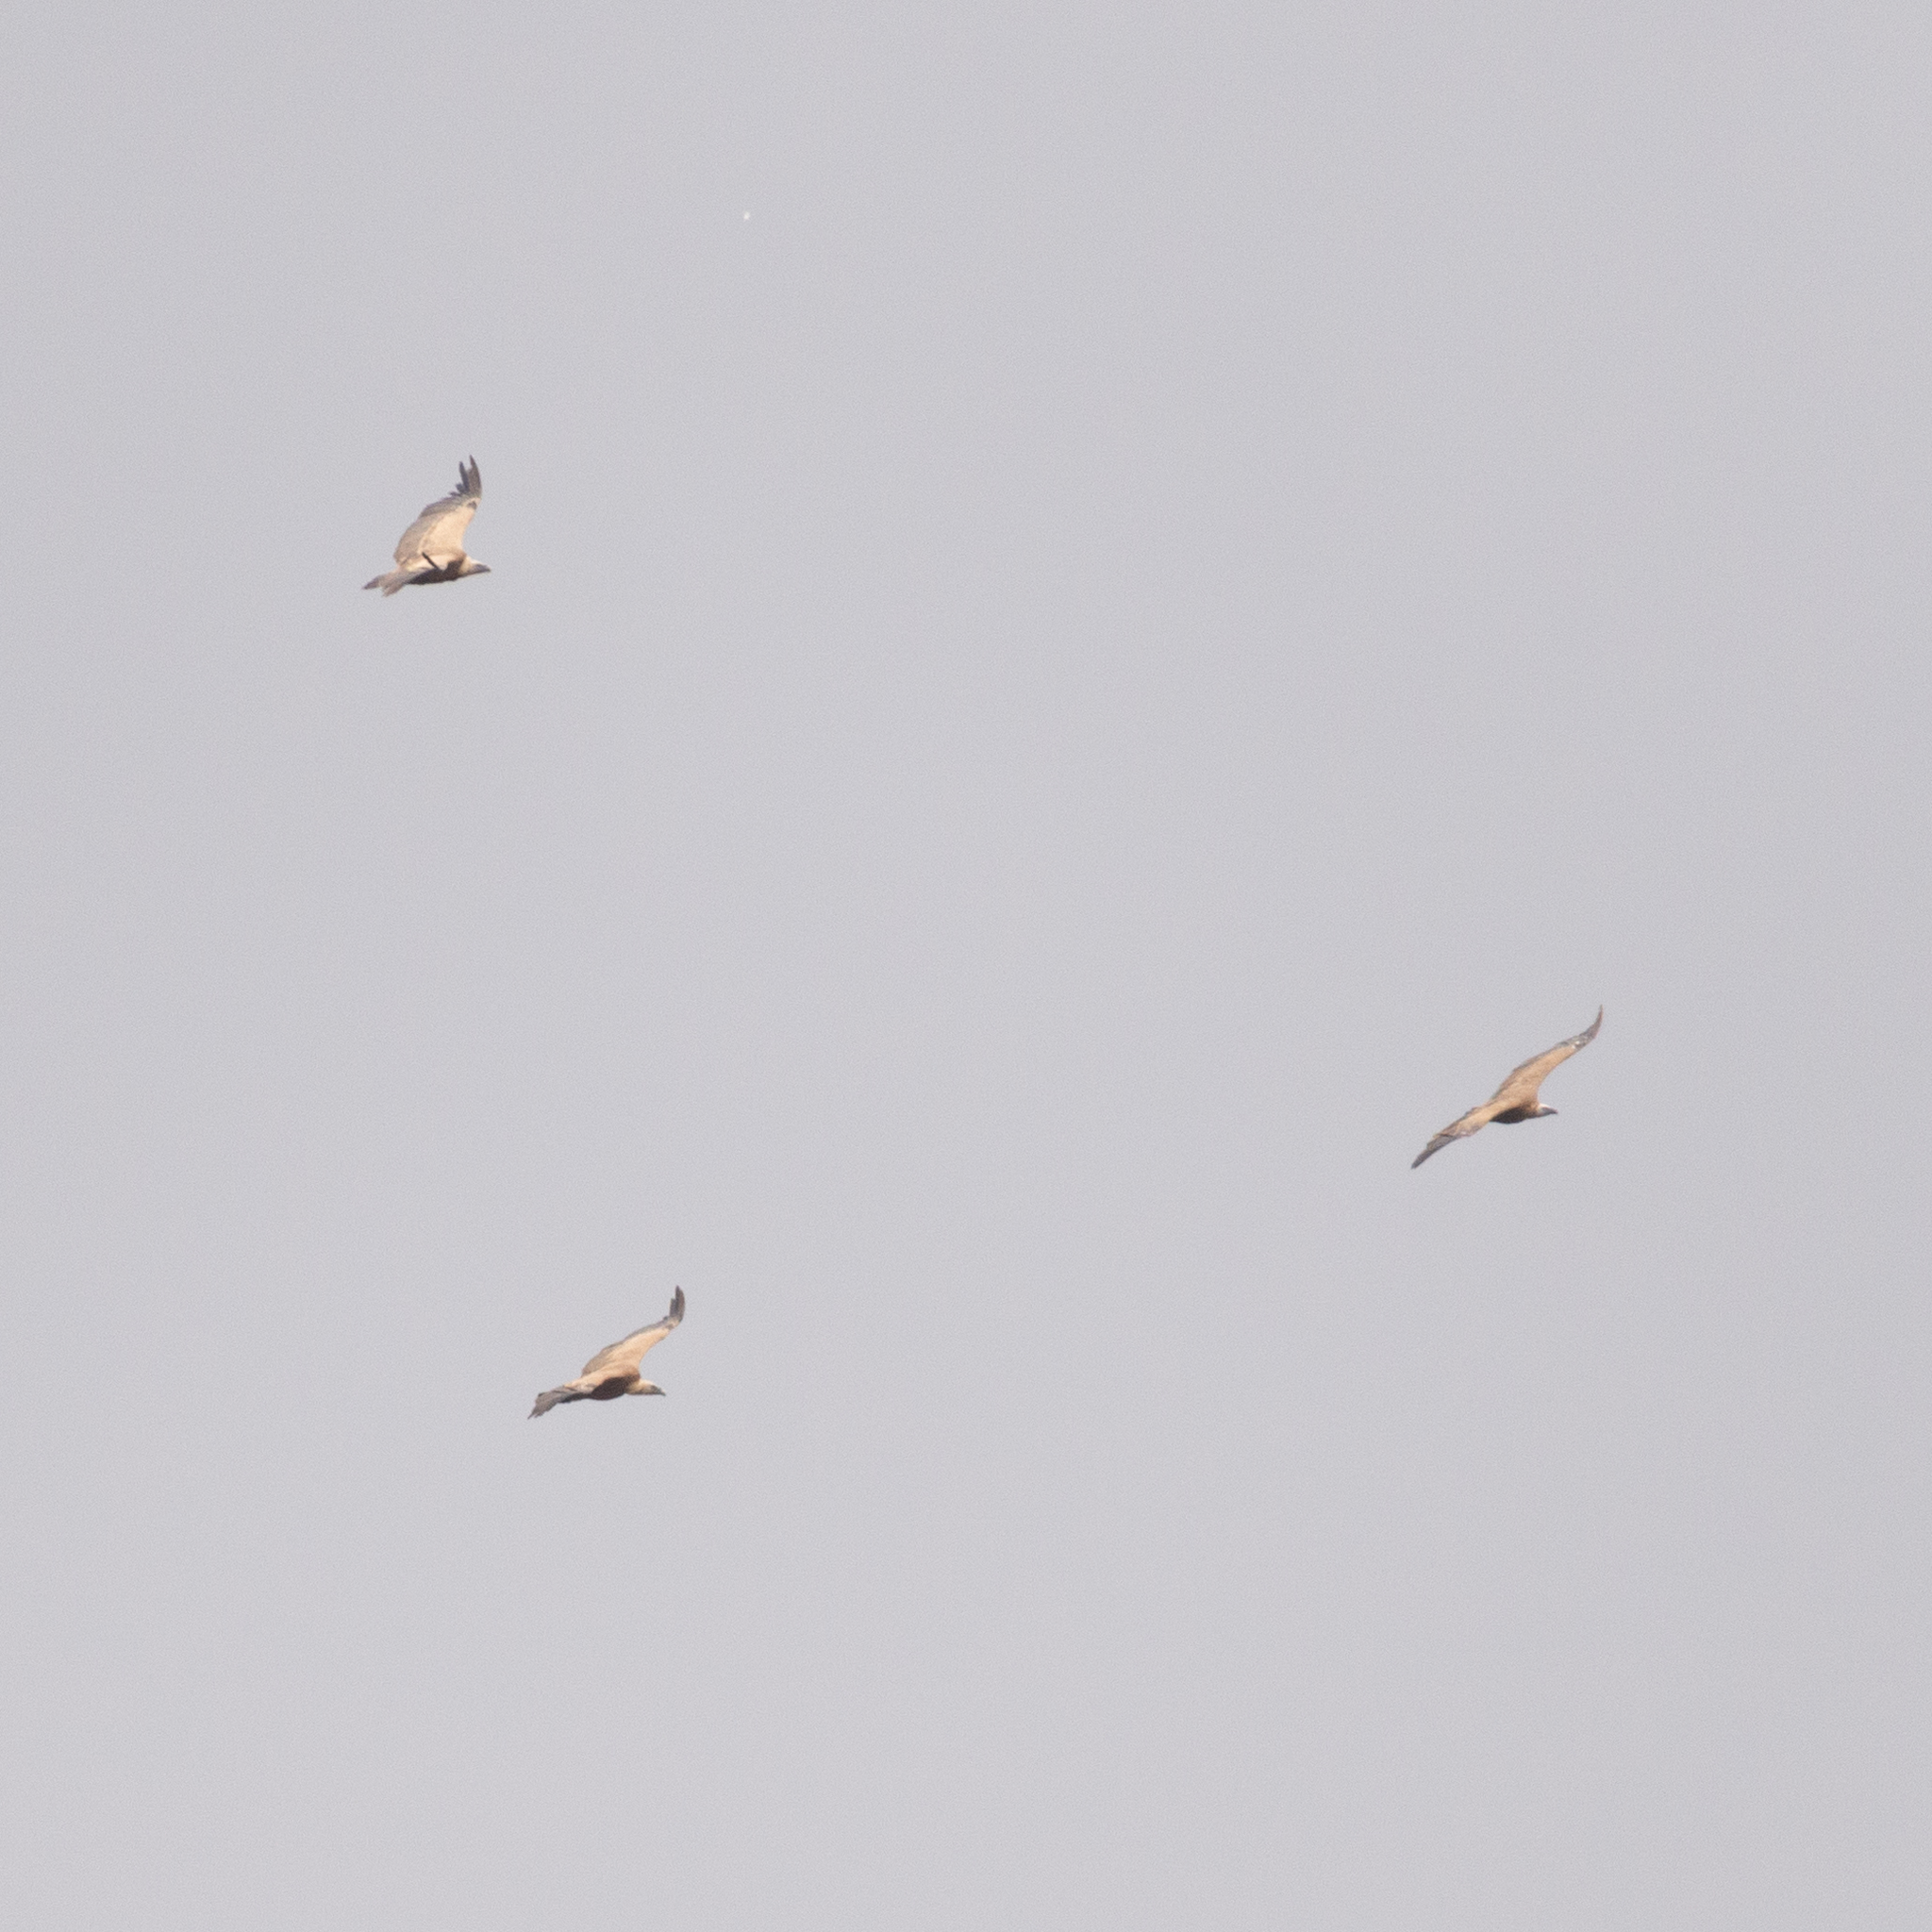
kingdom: Animalia
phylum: Chordata
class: Aves
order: Accipitriformes
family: Accipitridae
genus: Gyps
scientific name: Gyps fulvus
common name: Griffon vulture
